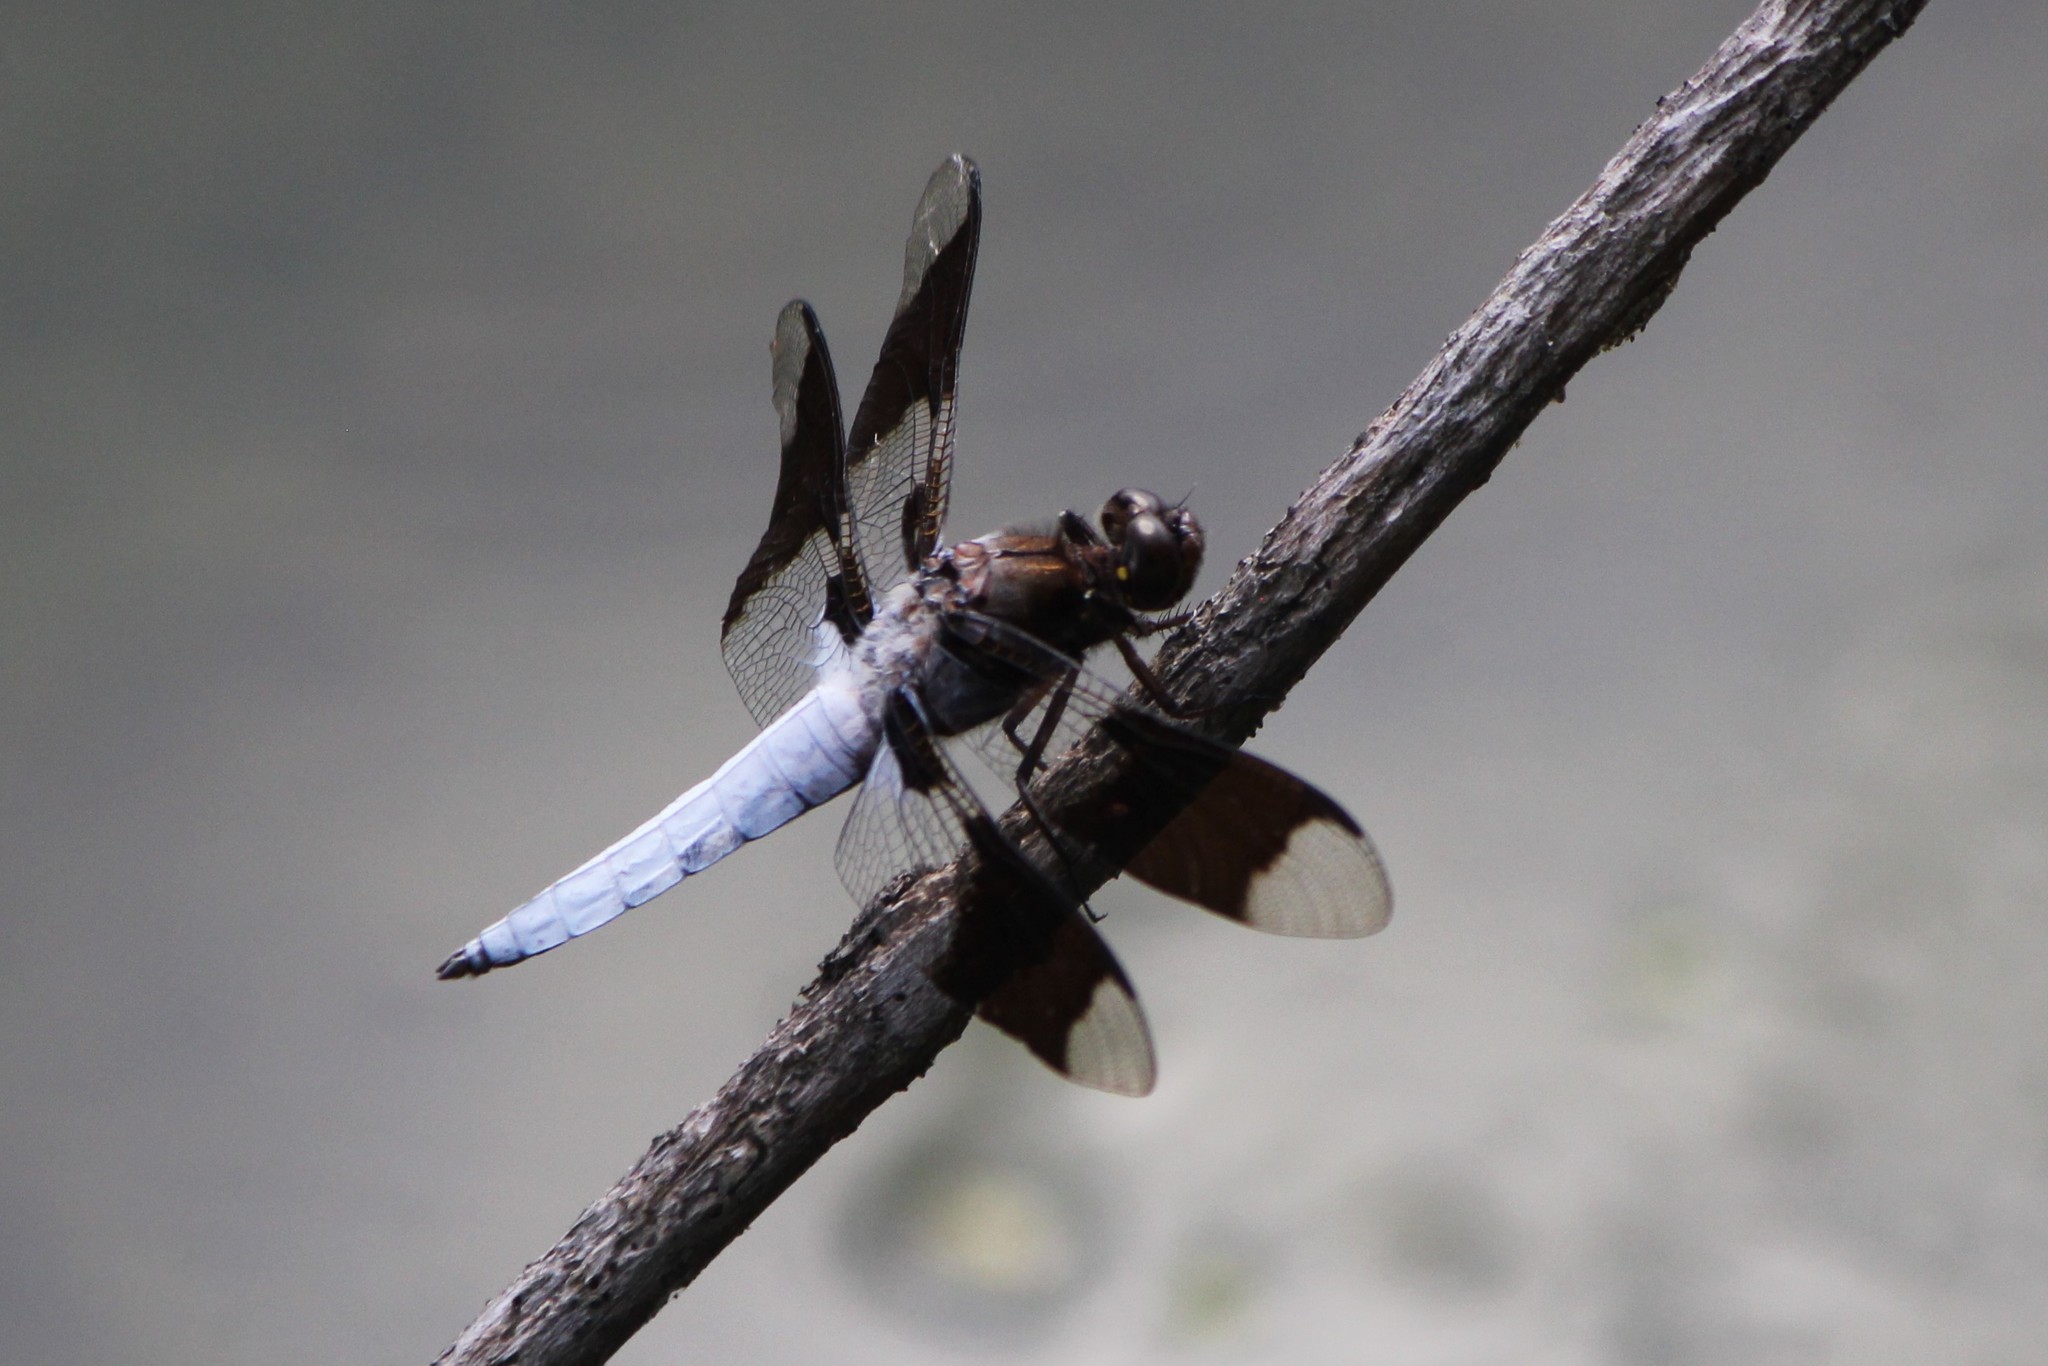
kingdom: Animalia
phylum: Arthropoda
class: Insecta
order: Odonata
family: Libellulidae
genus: Plathemis
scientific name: Plathemis lydia
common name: Common whitetail
